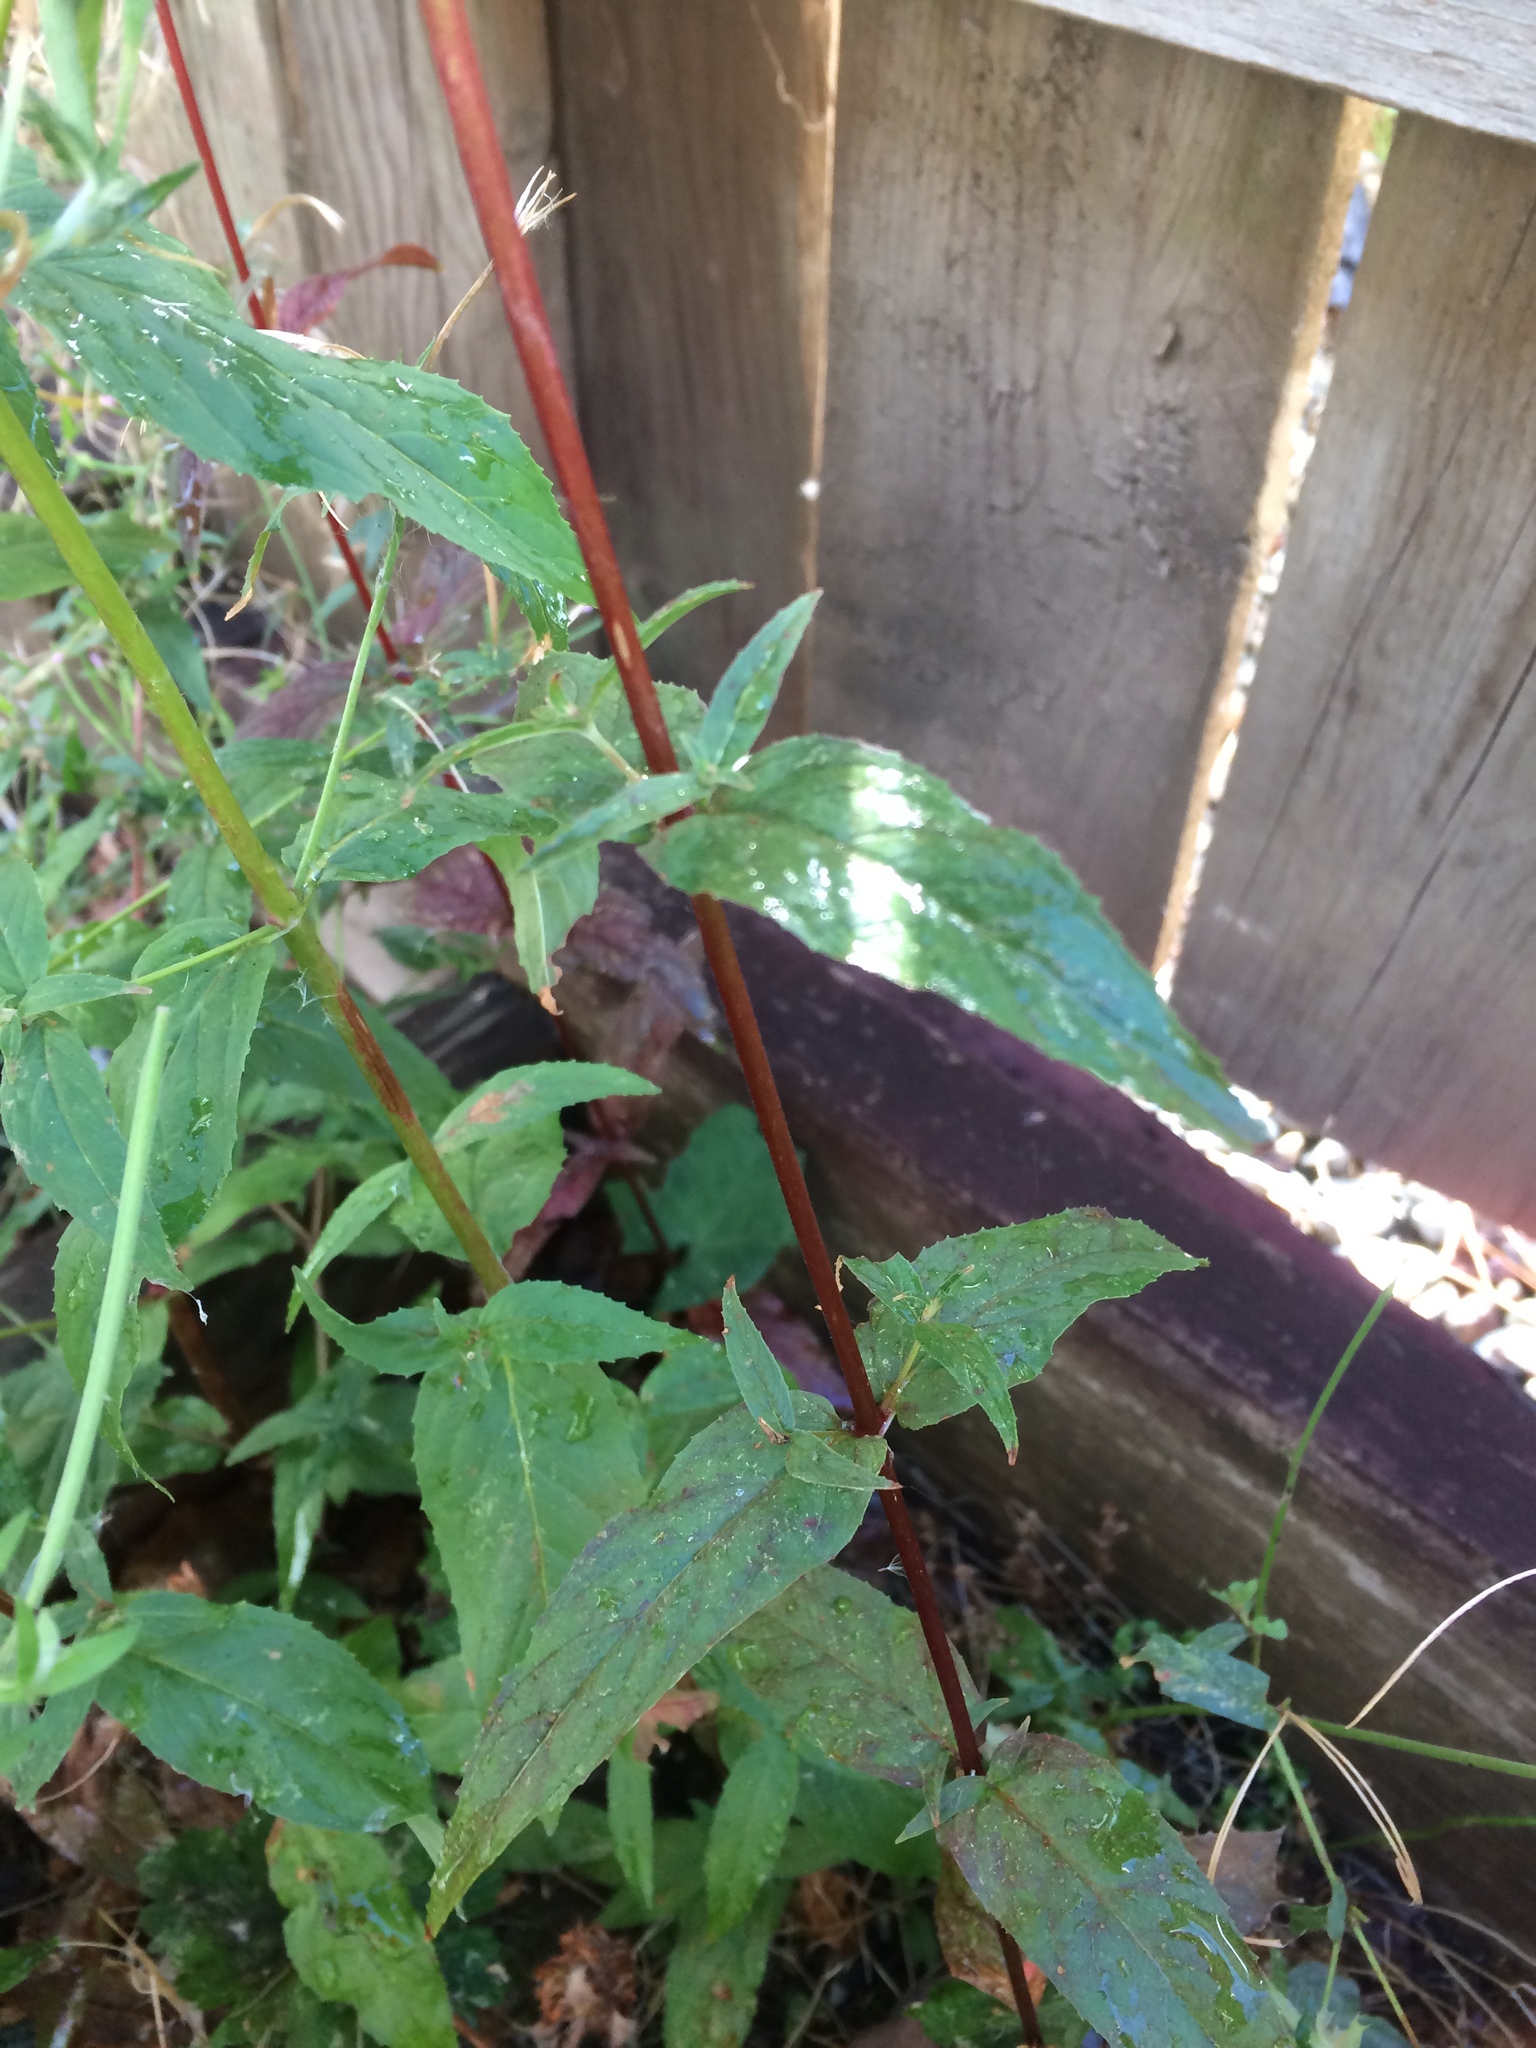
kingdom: Plantae
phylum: Tracheophyta
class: Magnoliopsida
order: Myrtales
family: Onagraceae
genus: Epilobium
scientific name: Epilobium ciliatum
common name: American willowherb
